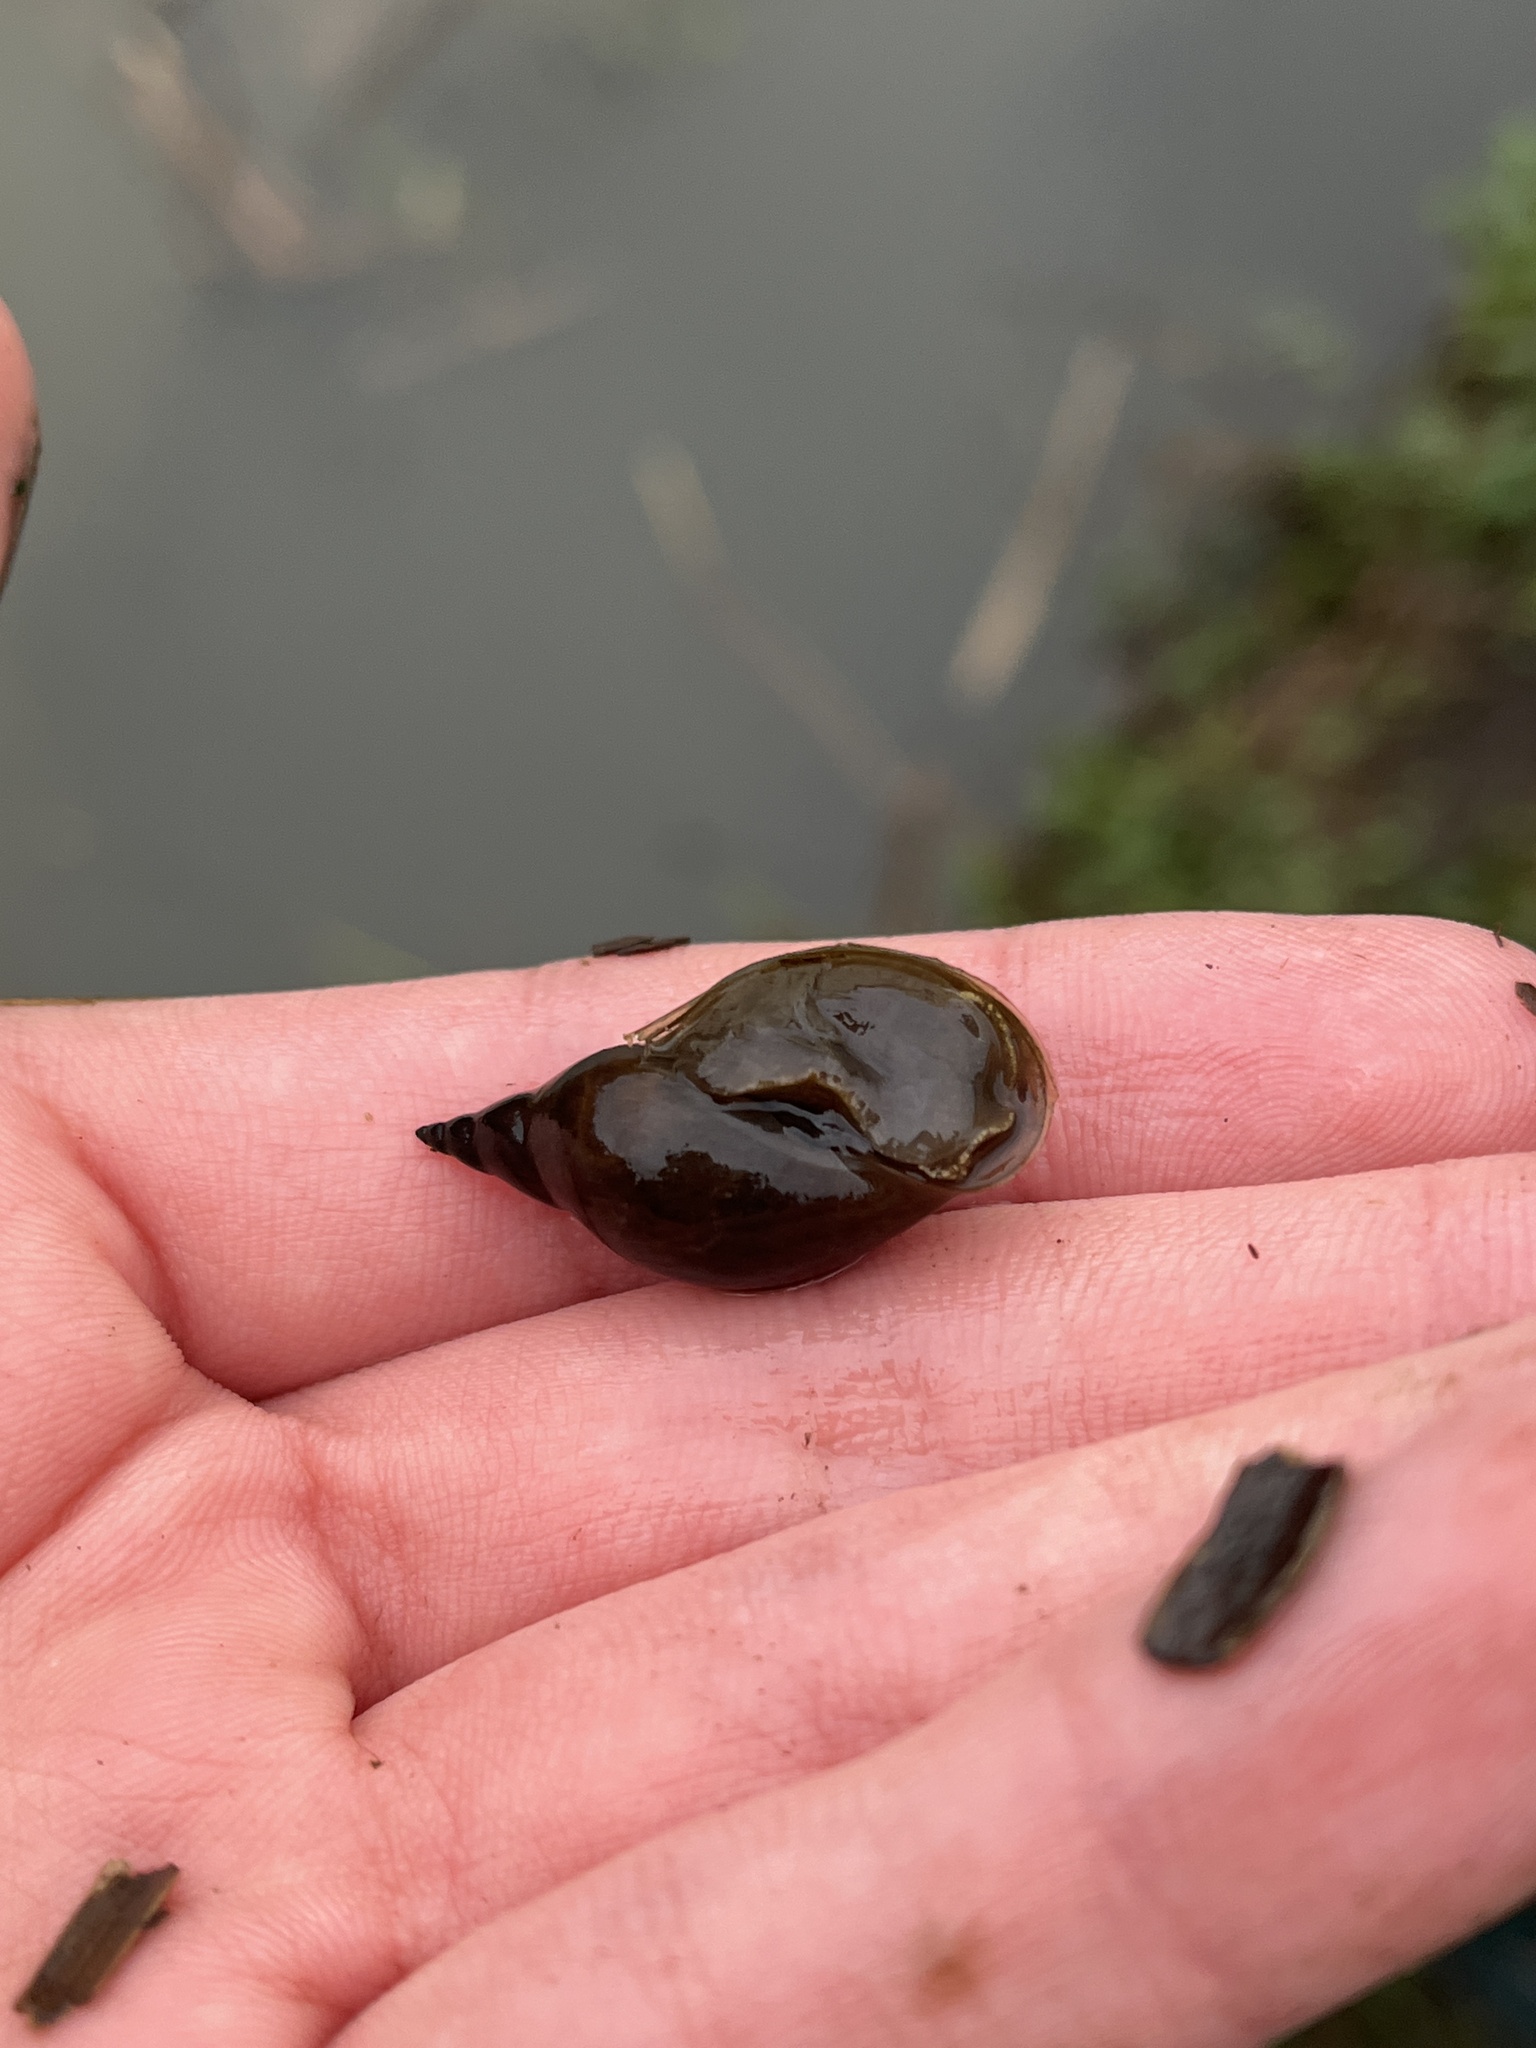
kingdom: Animalia
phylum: Mollusca
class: Gastropoda
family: Lymnaeidae
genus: Lymnaea
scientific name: Lymnaea stagnalis
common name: Great pond snail
